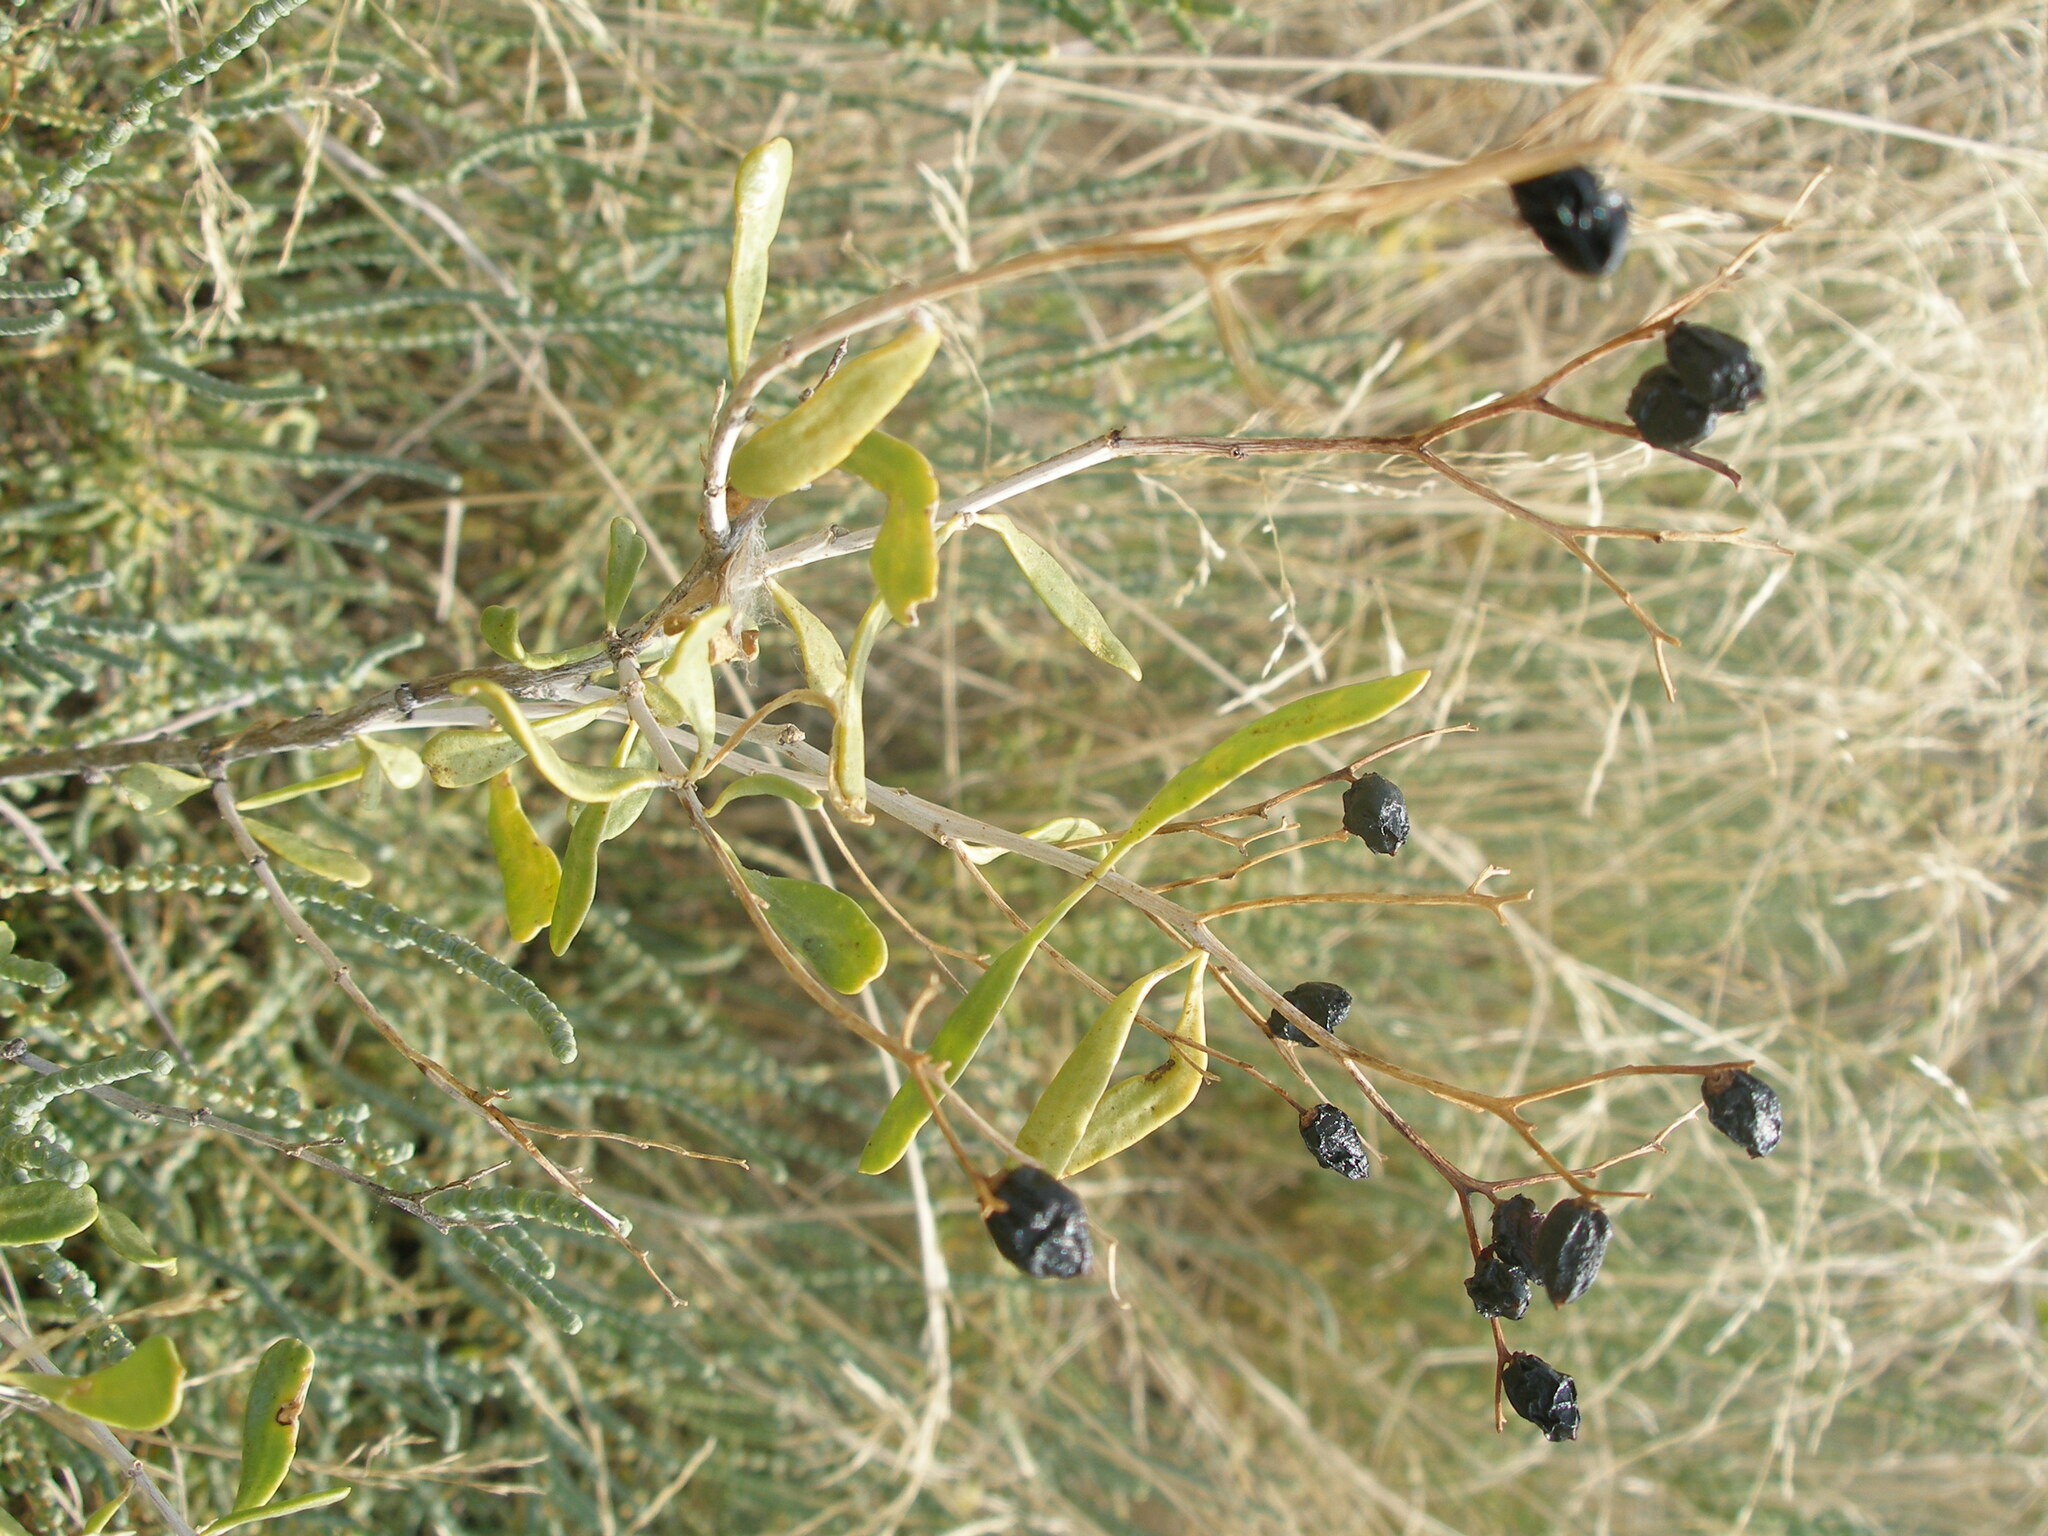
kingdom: Plantae
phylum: Tracheophyta
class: Magnoliopsida
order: Sapindales
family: Nitrariaceae
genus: Nitraria
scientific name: Nitraria schoberi
